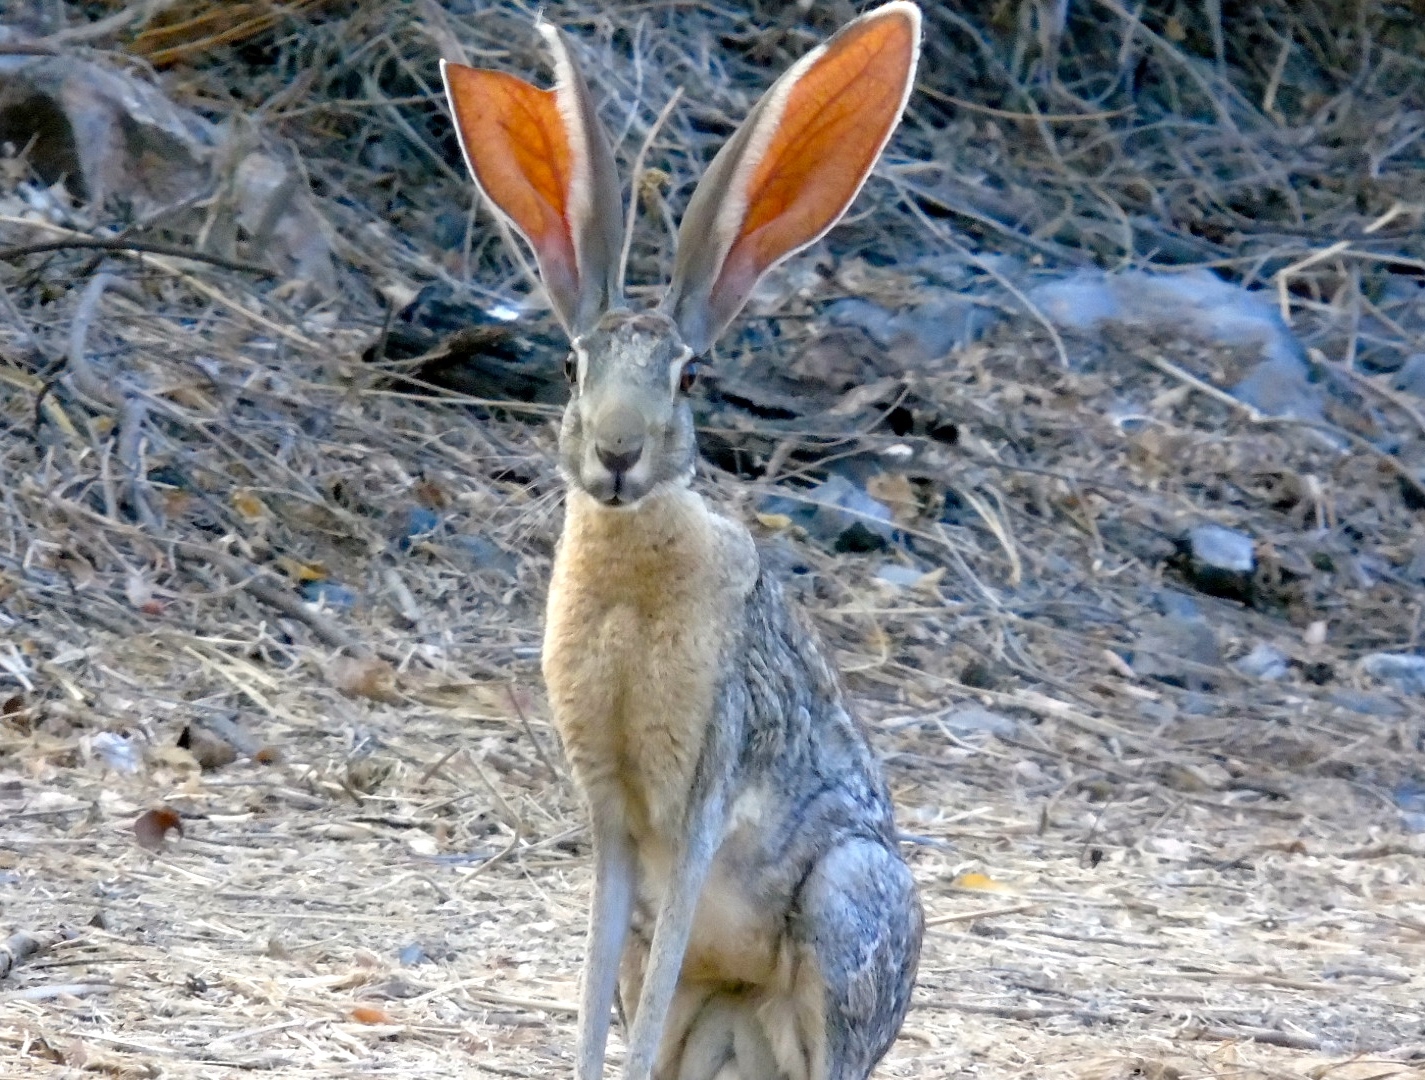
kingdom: Animalia
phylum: Chordata
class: Mammalia
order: Lagomorpha
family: Leporidae
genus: Lepus
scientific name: Lepus alleni
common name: Antelope jackrabbit
